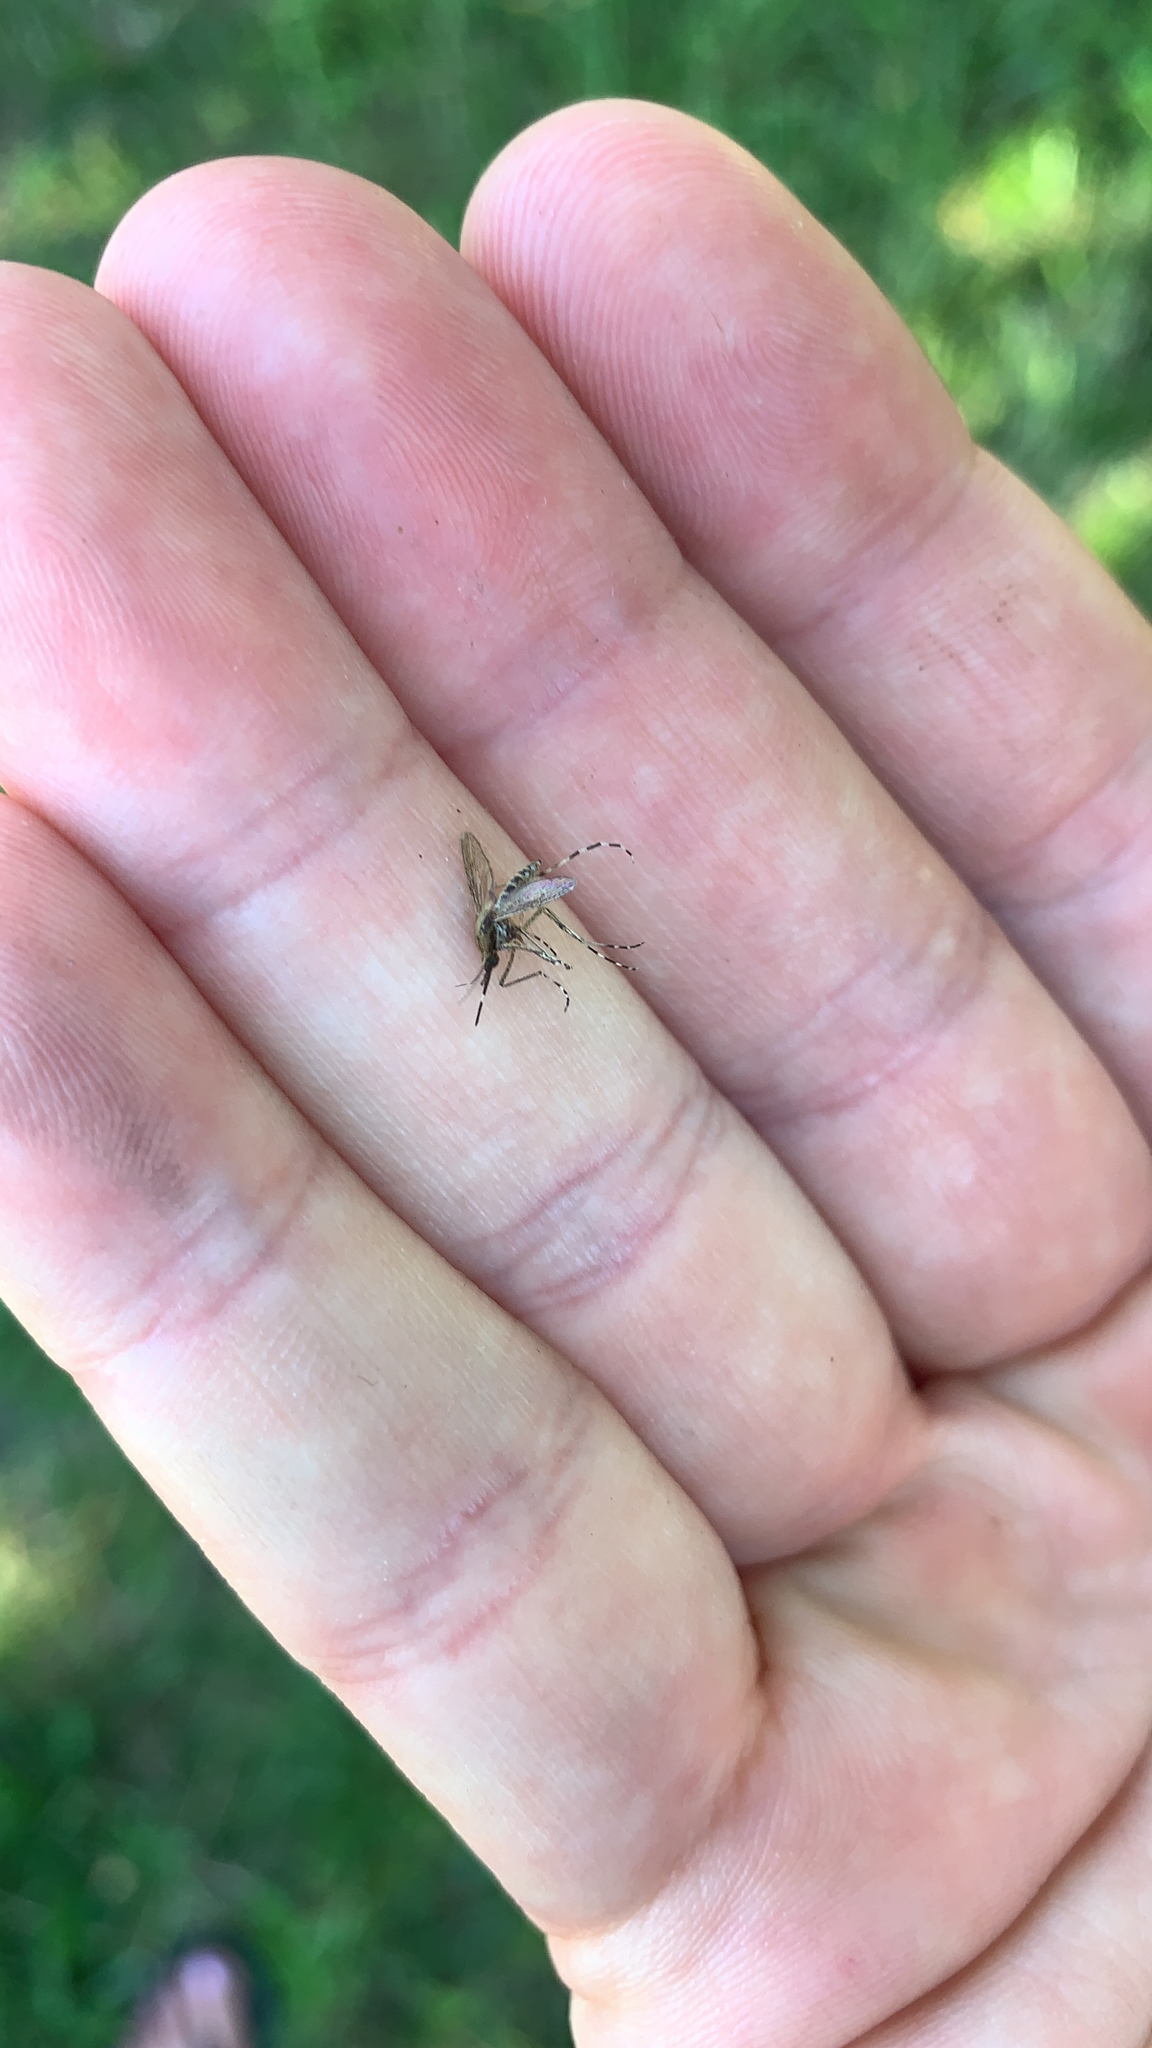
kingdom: Animalia
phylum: Arthropoda
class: Insecta
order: Diptera
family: Culicidae
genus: Aedes
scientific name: Aedes sollicitans
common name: Saltmarsh mosquito
